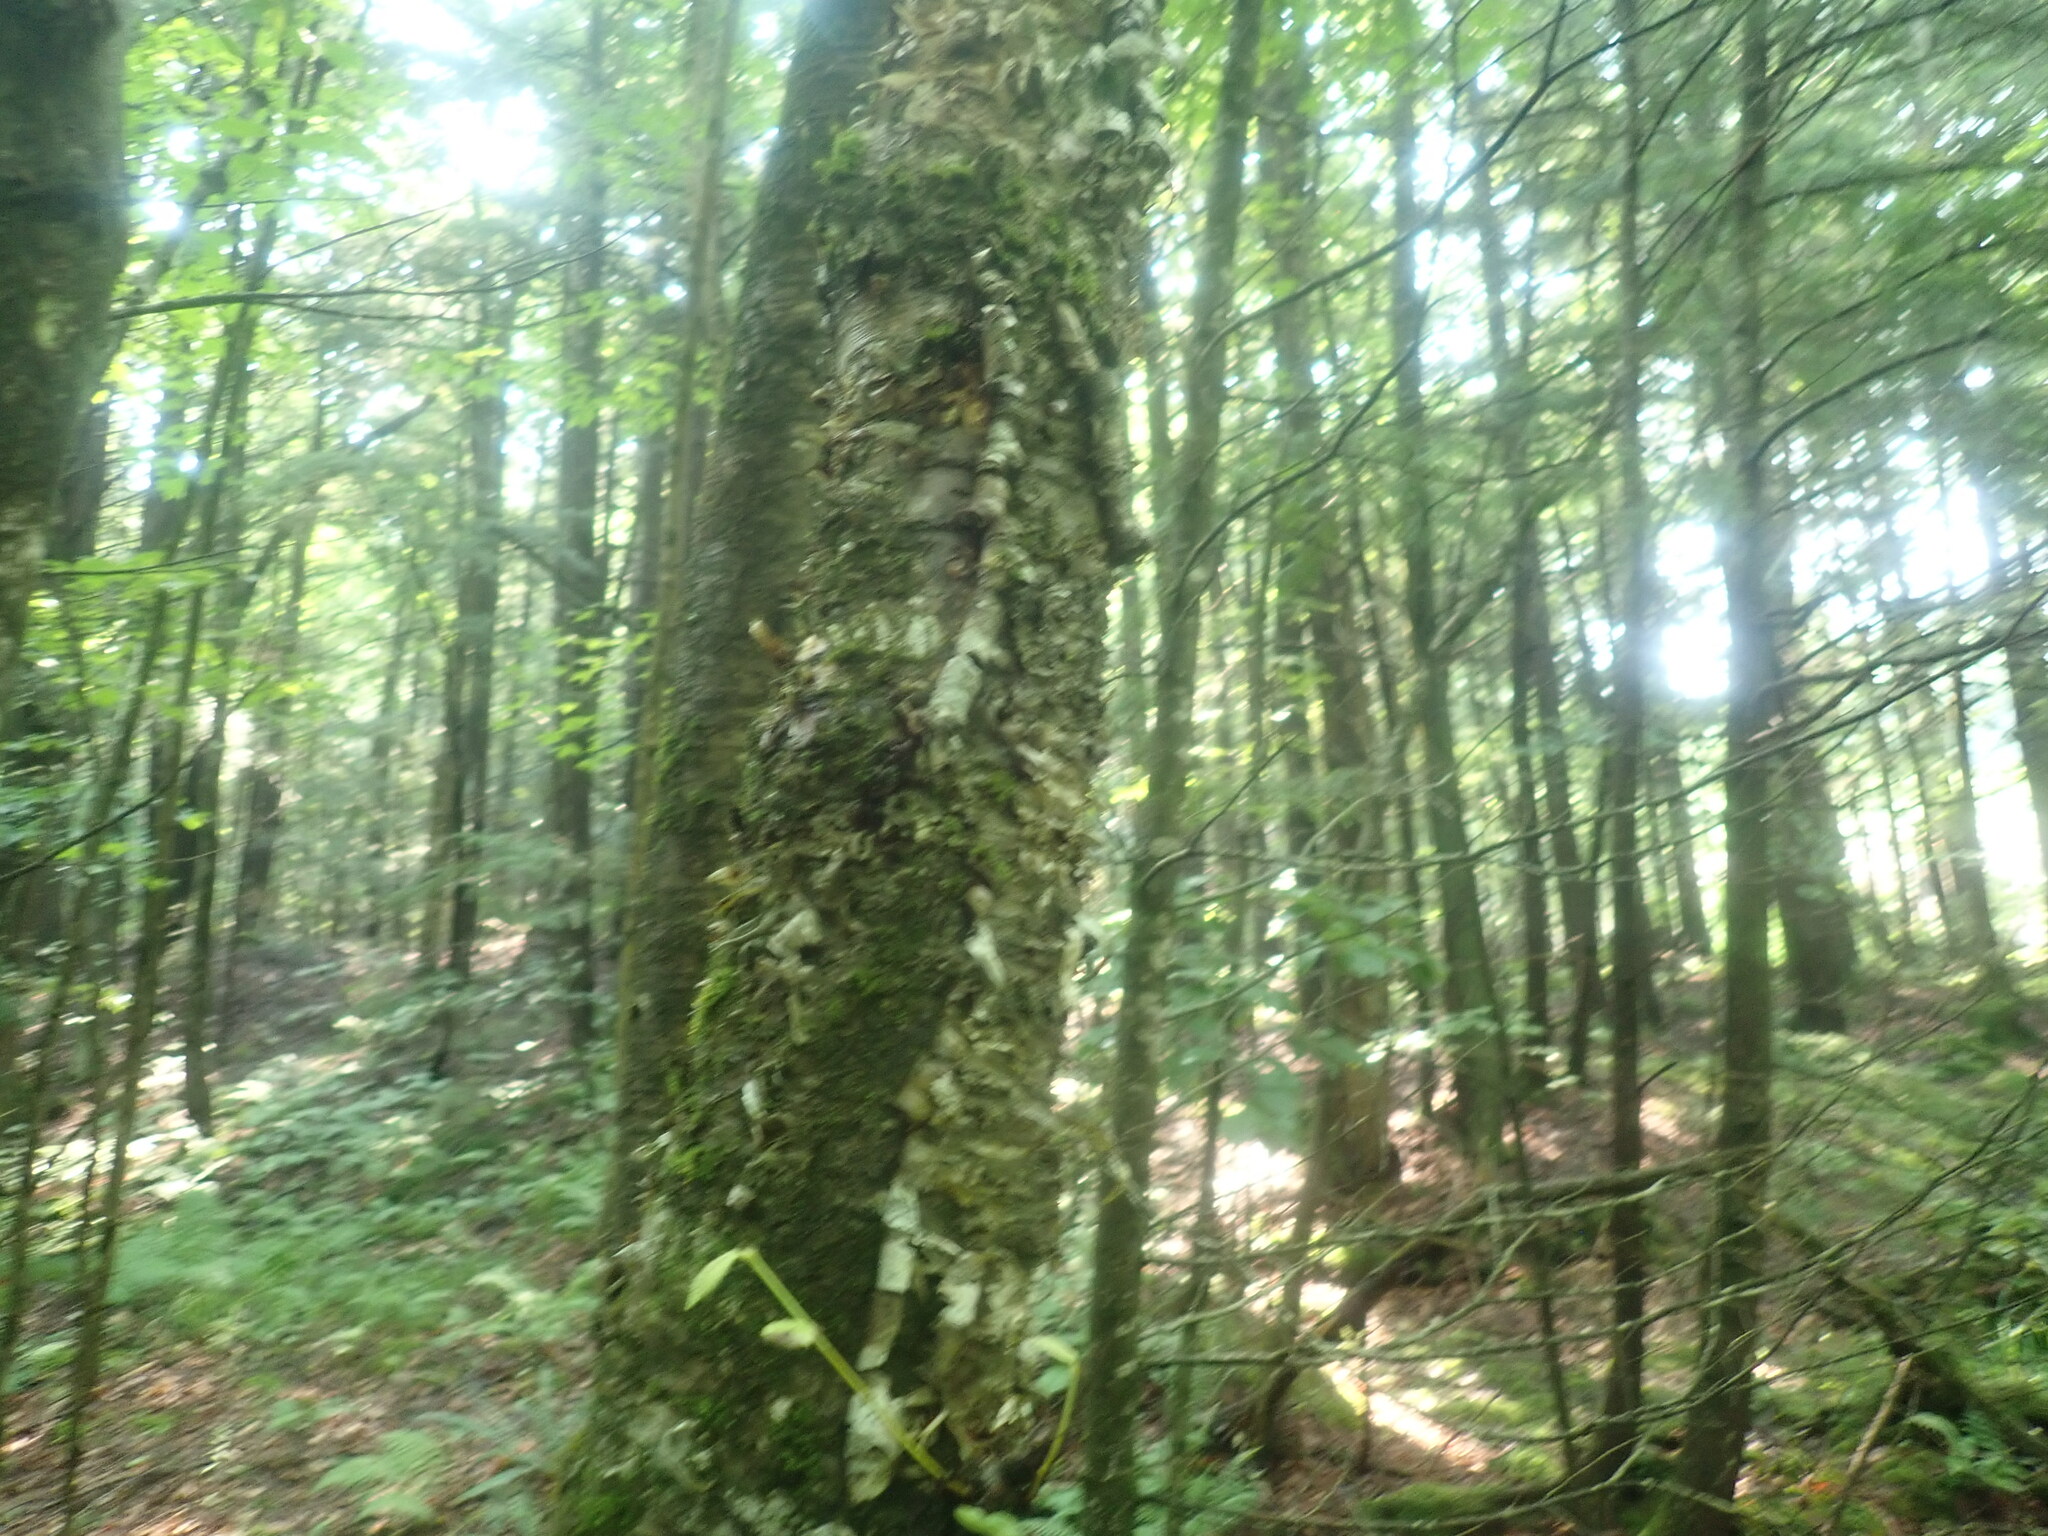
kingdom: Plantae
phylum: Tracheophyta
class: Magnoliopsida
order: Fagales
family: Betulaceae
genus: Betula
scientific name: Betula alleghaniensis
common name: Yellow birch
